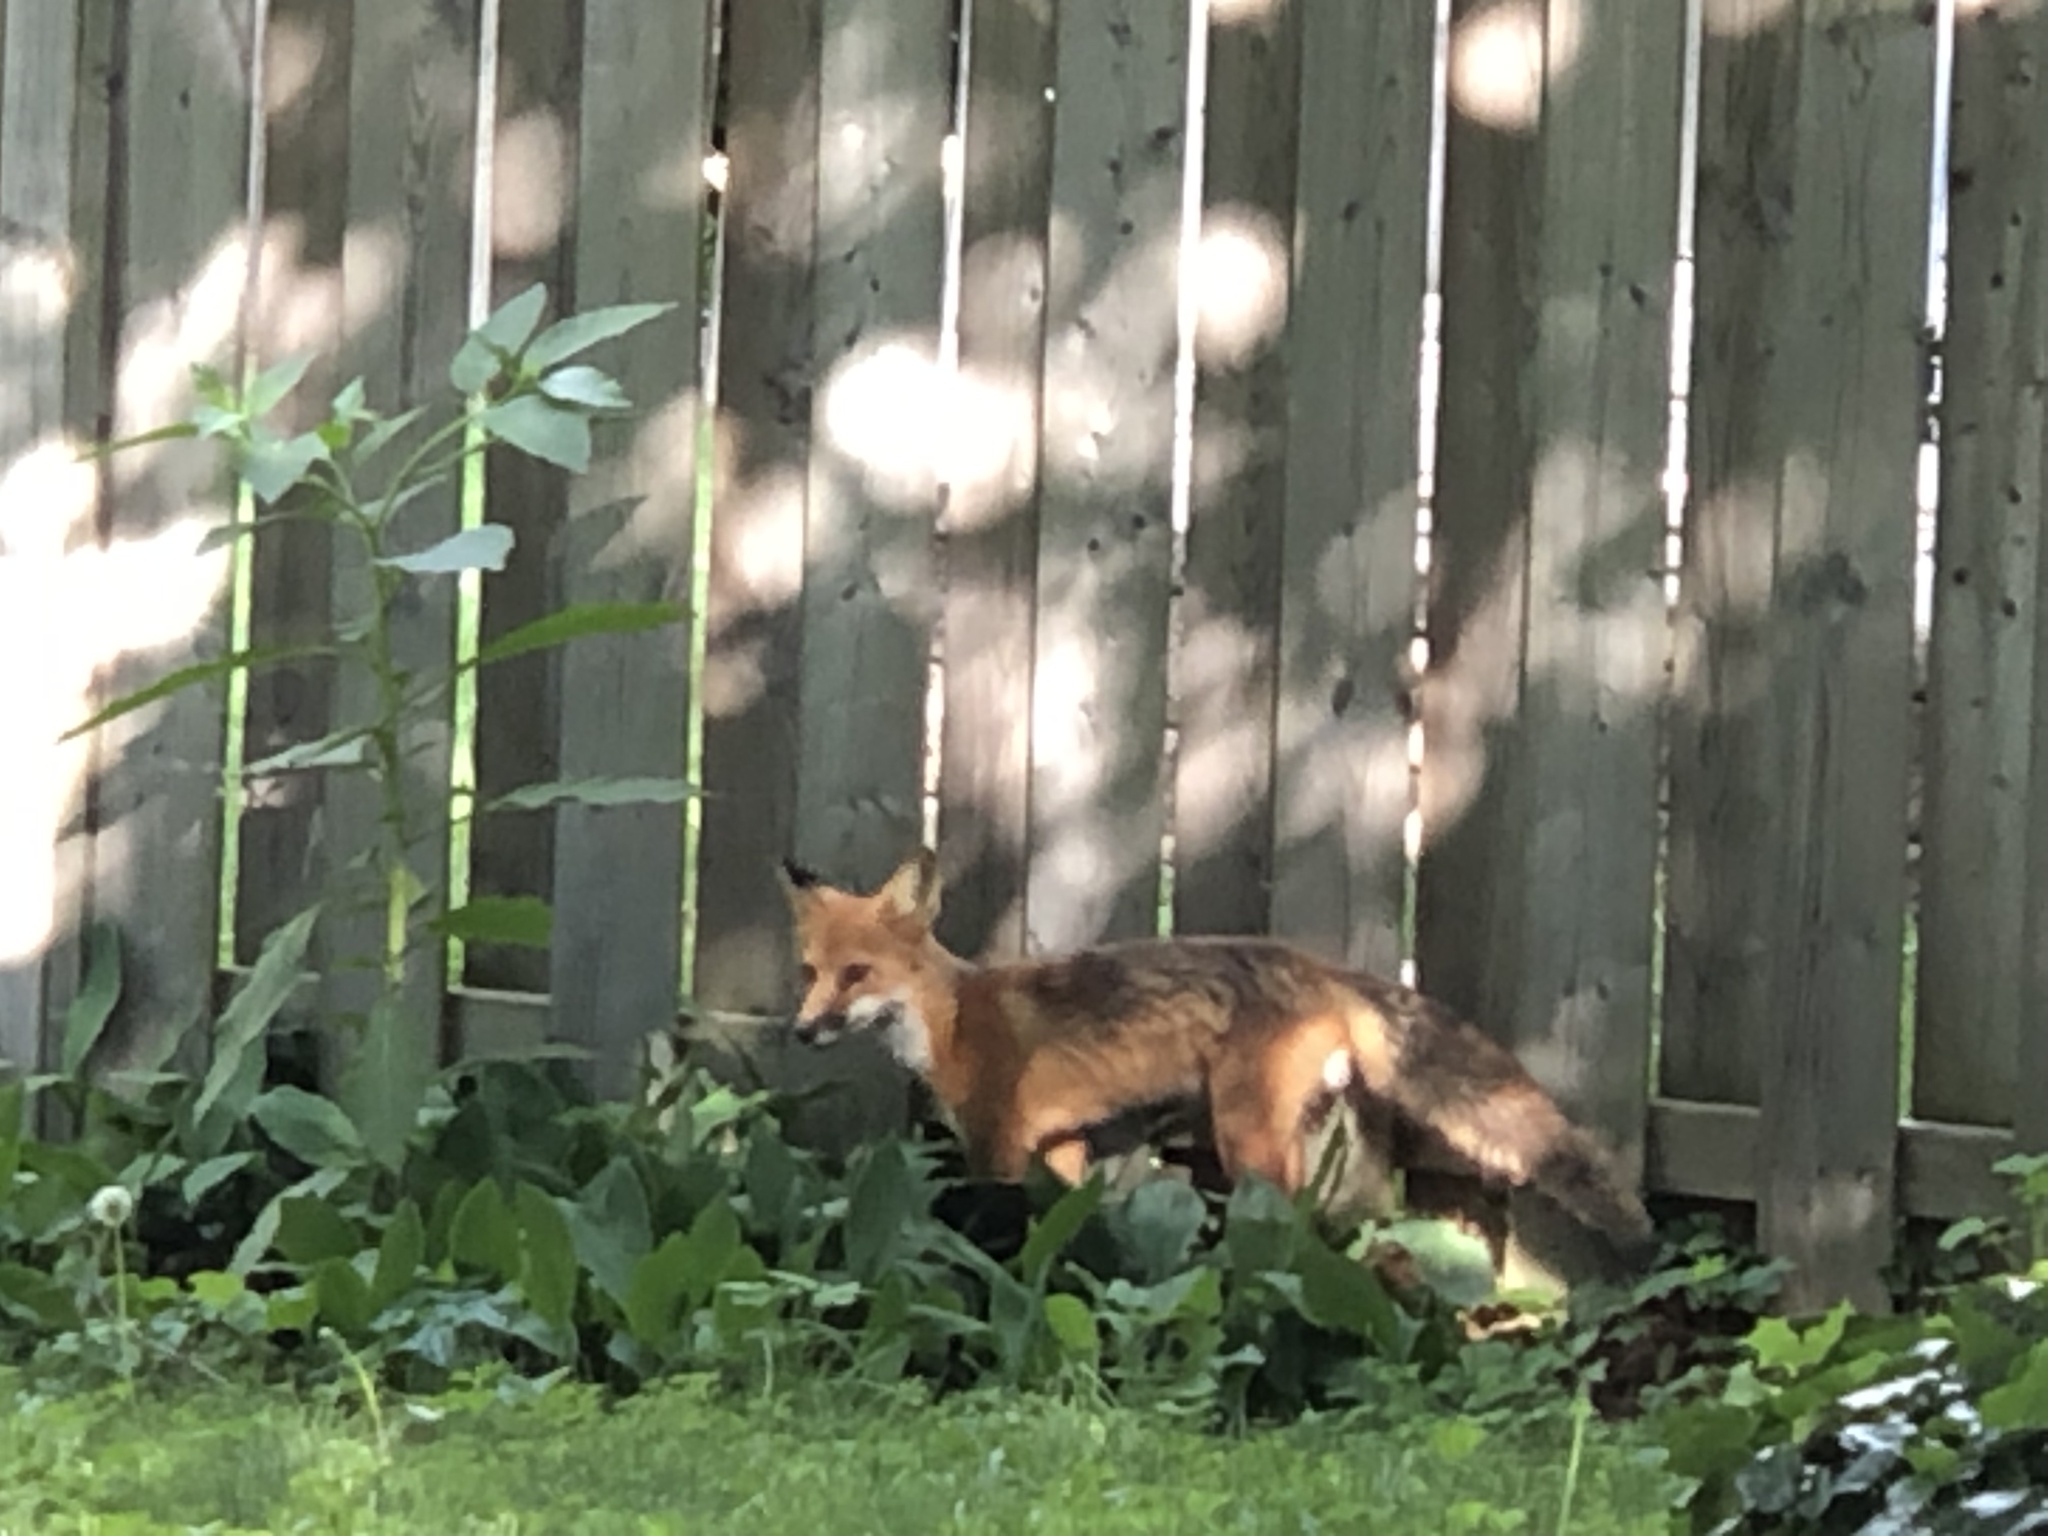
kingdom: Animalia
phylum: Chordata
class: Mammalia
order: Carnivora
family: Canidae
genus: Vulpes
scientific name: Vulpes vulpes
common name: Red fox
